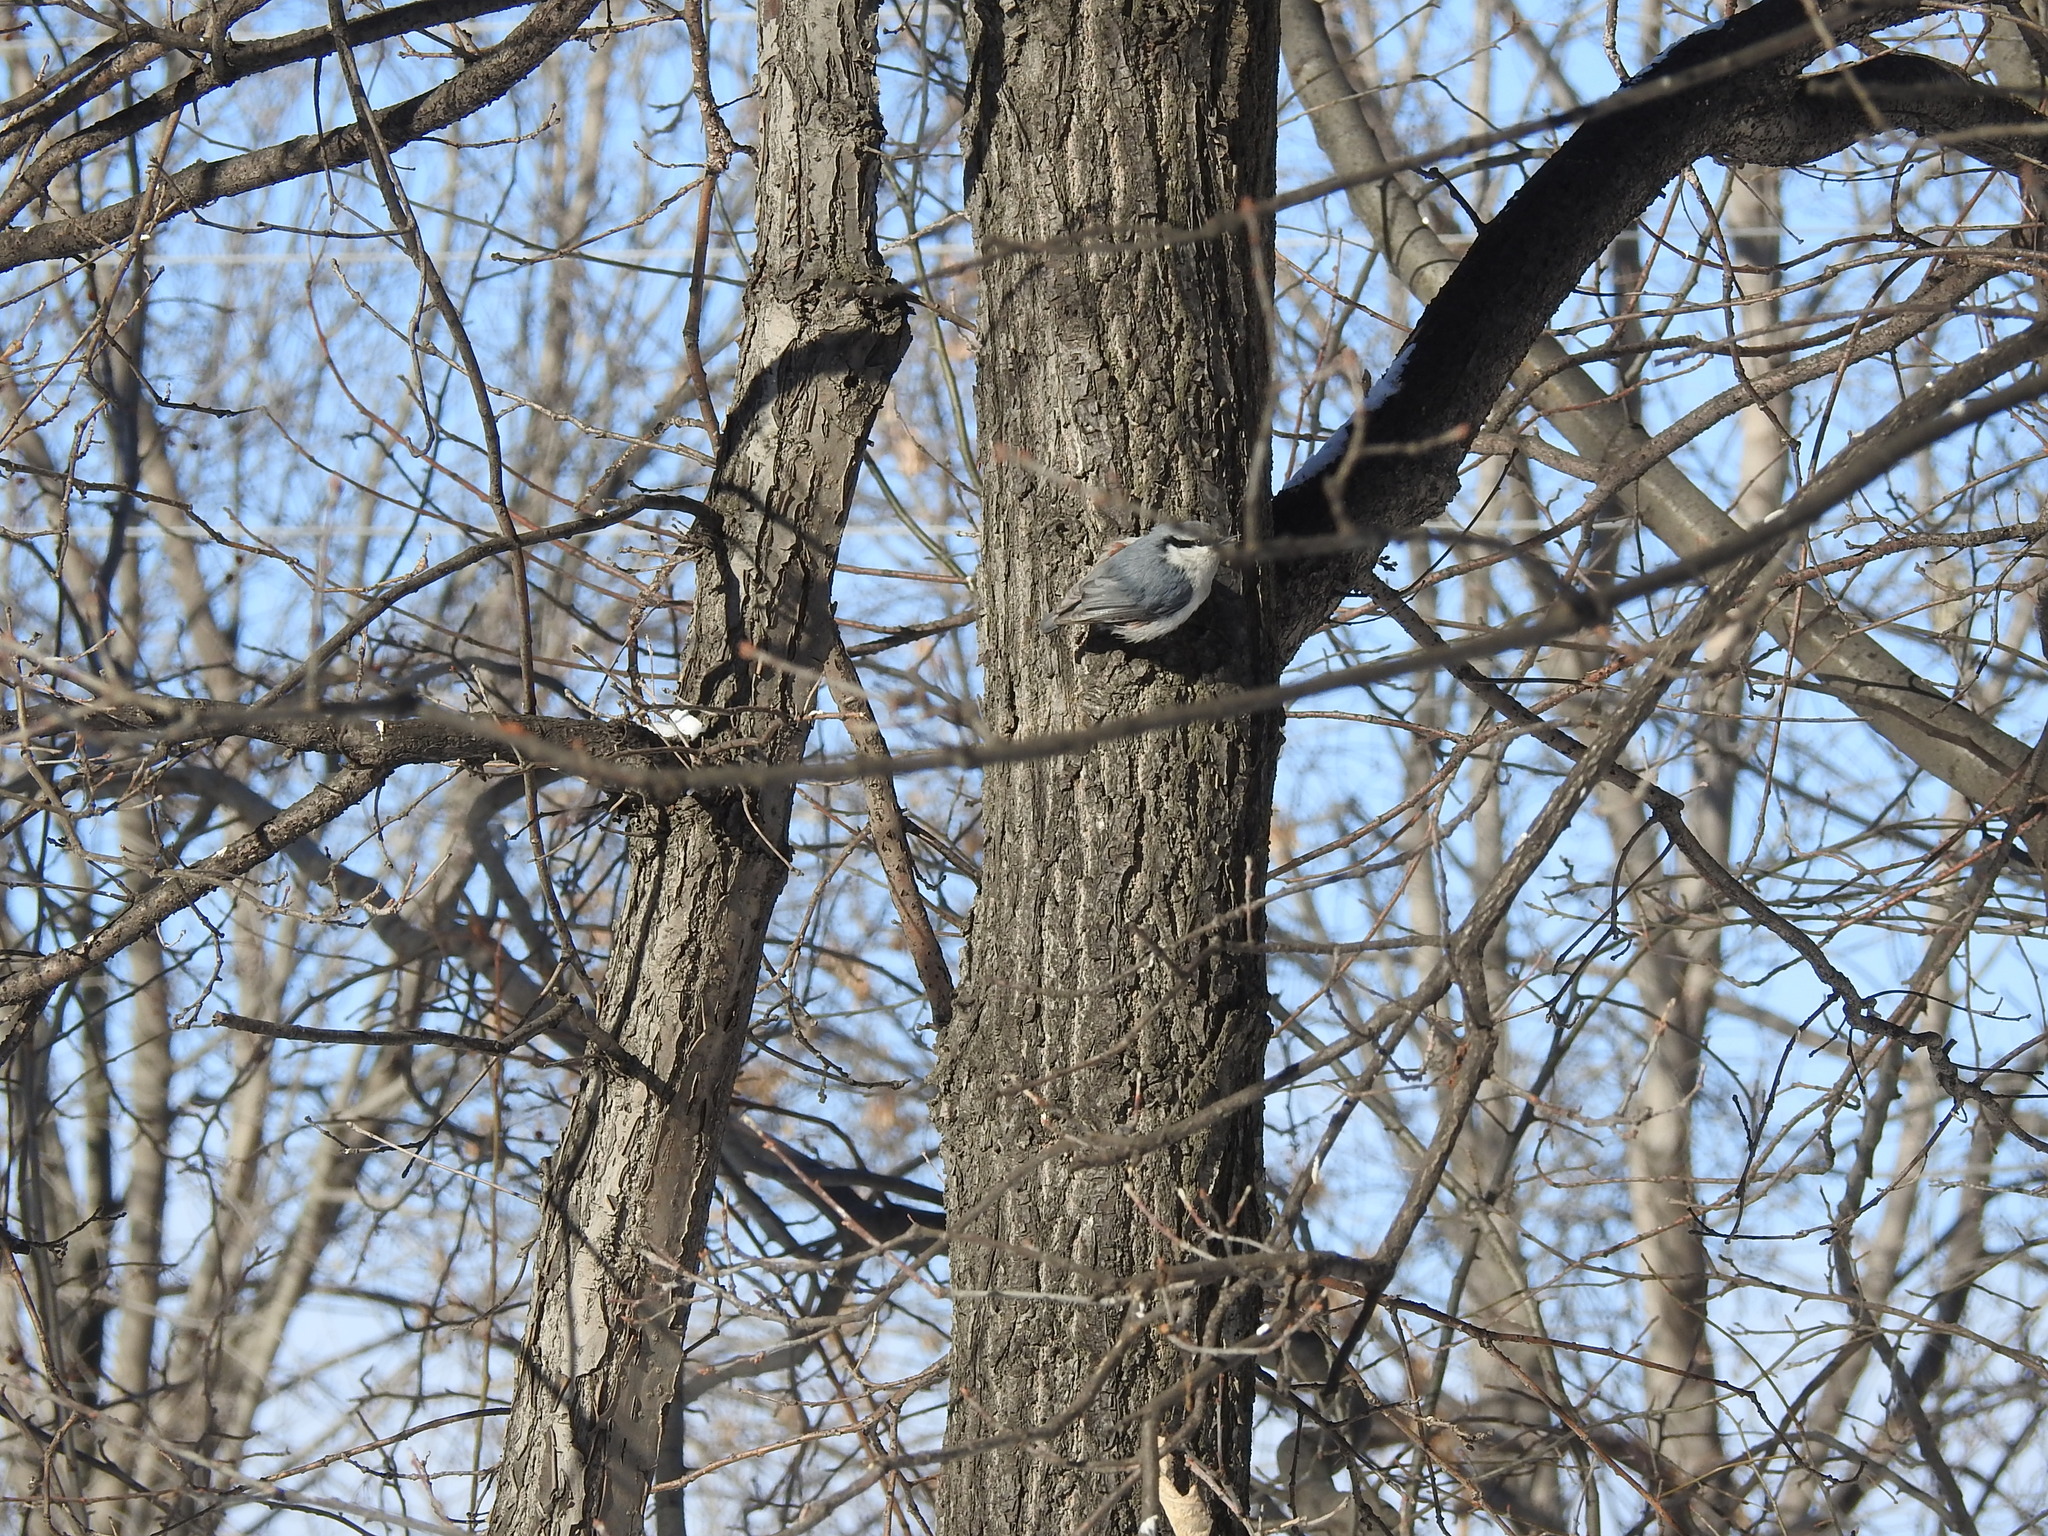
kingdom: Animalia
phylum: Chordata
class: Aves
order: Passeriformes
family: Sittidae
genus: Sitta
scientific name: Sitta europaea
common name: Eurasian nuthatch
